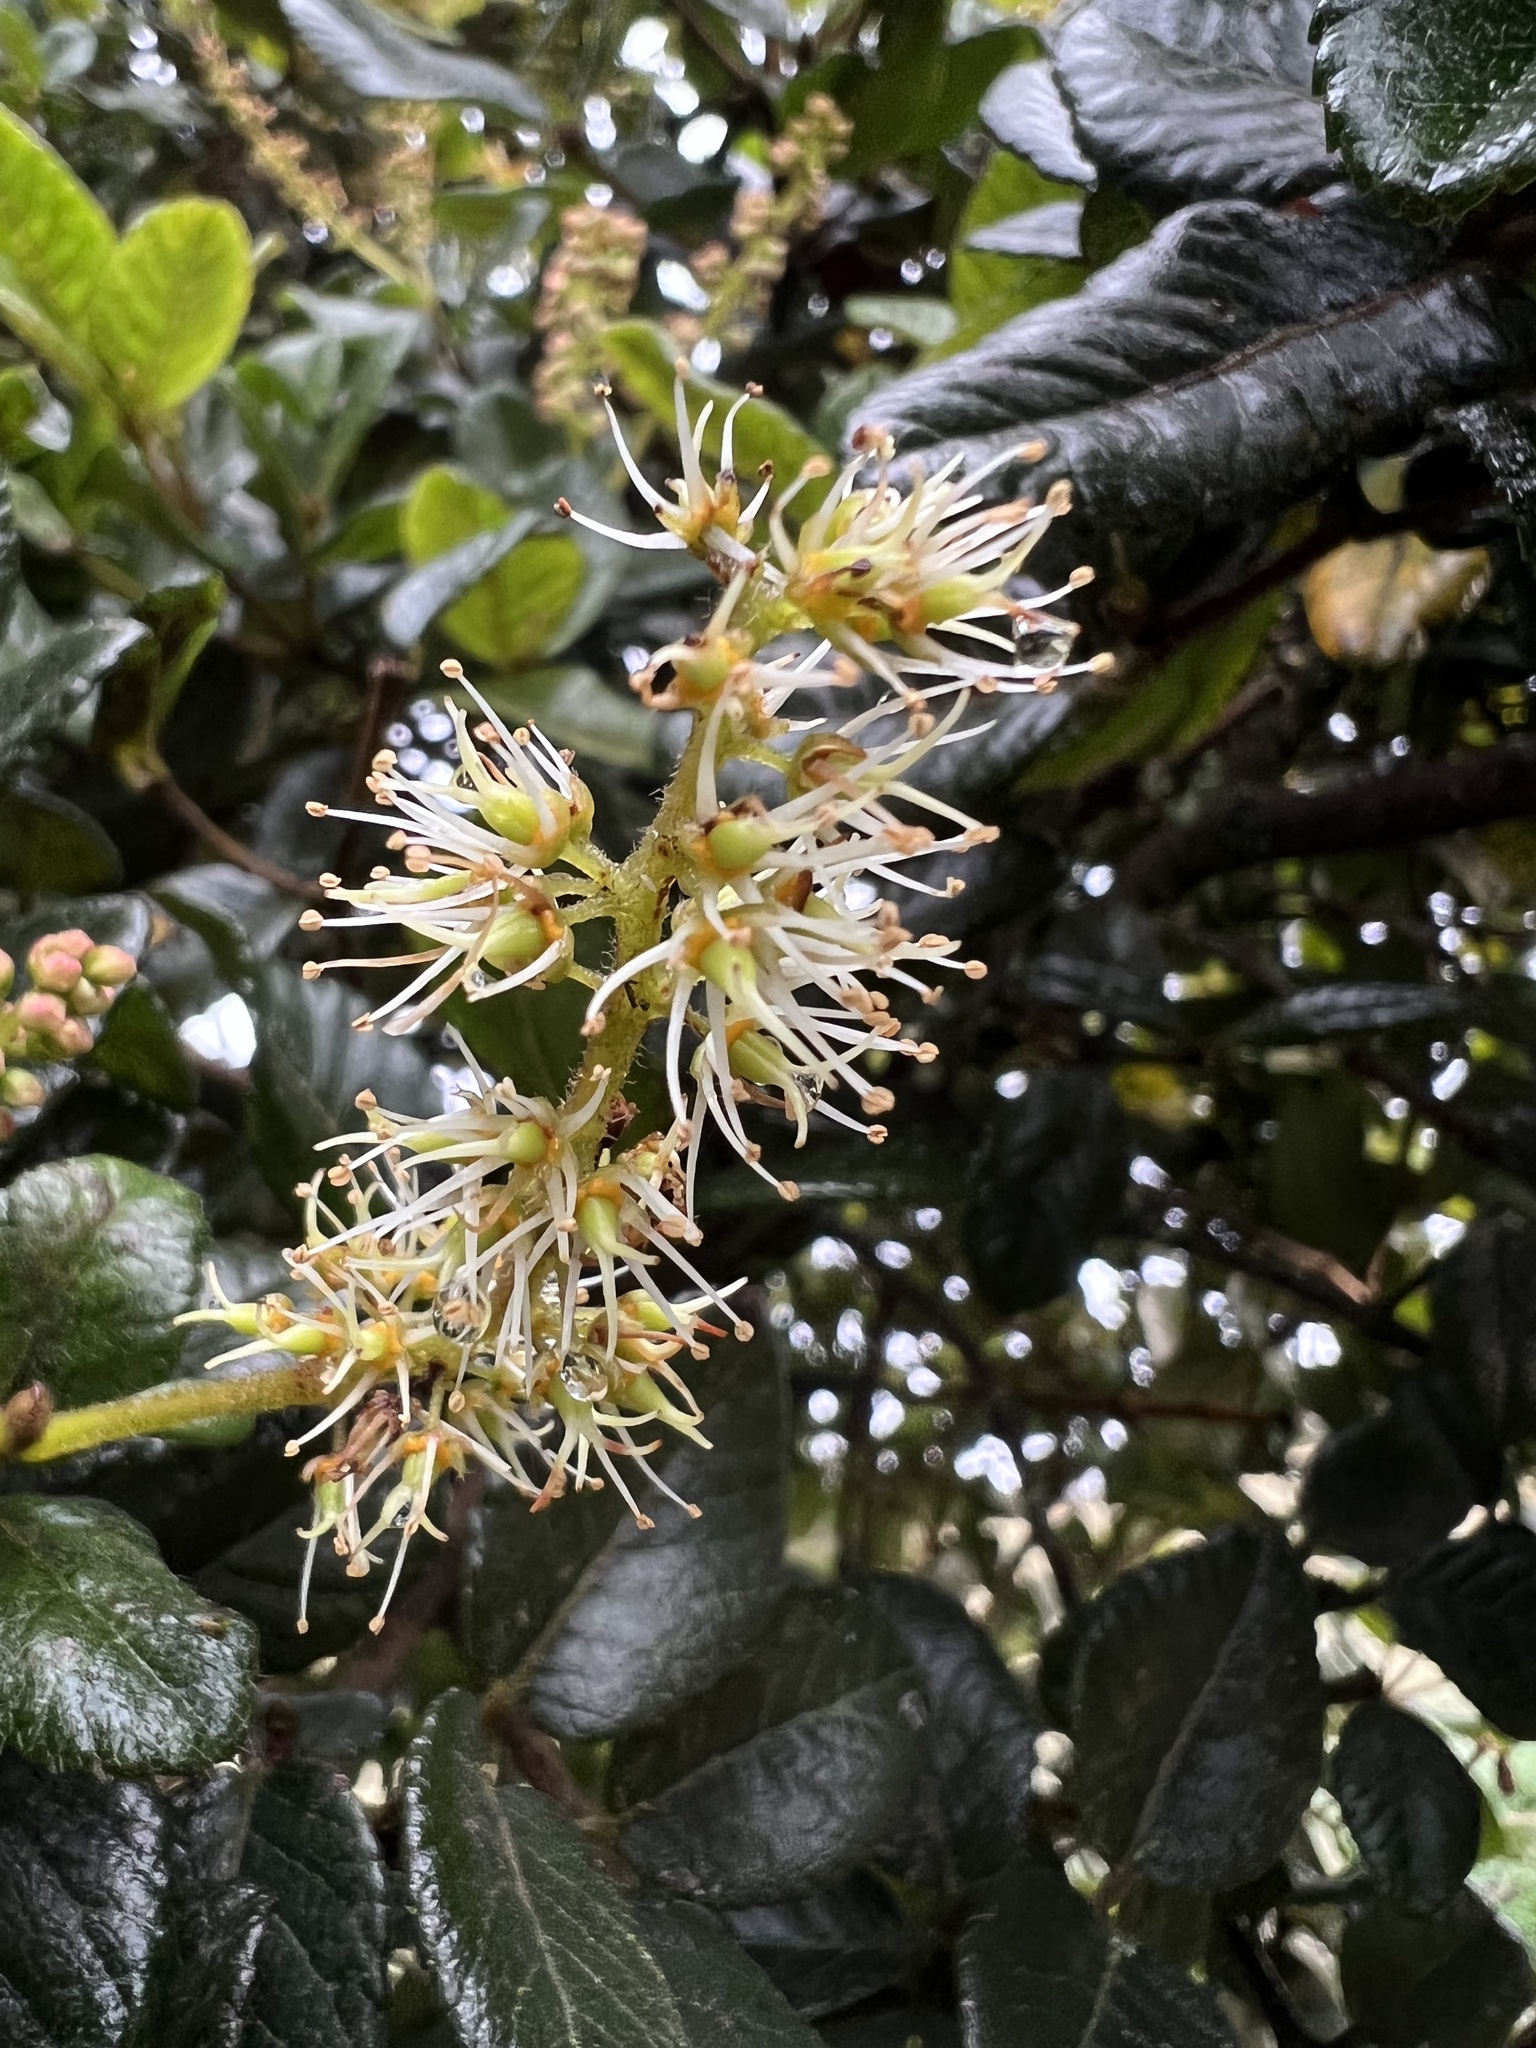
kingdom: Plantae
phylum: Tracheophyta
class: Magnoliopsida
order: Oxalidales
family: Cunoniaceae
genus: Weinmannia
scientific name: Weinmannia rollottii
